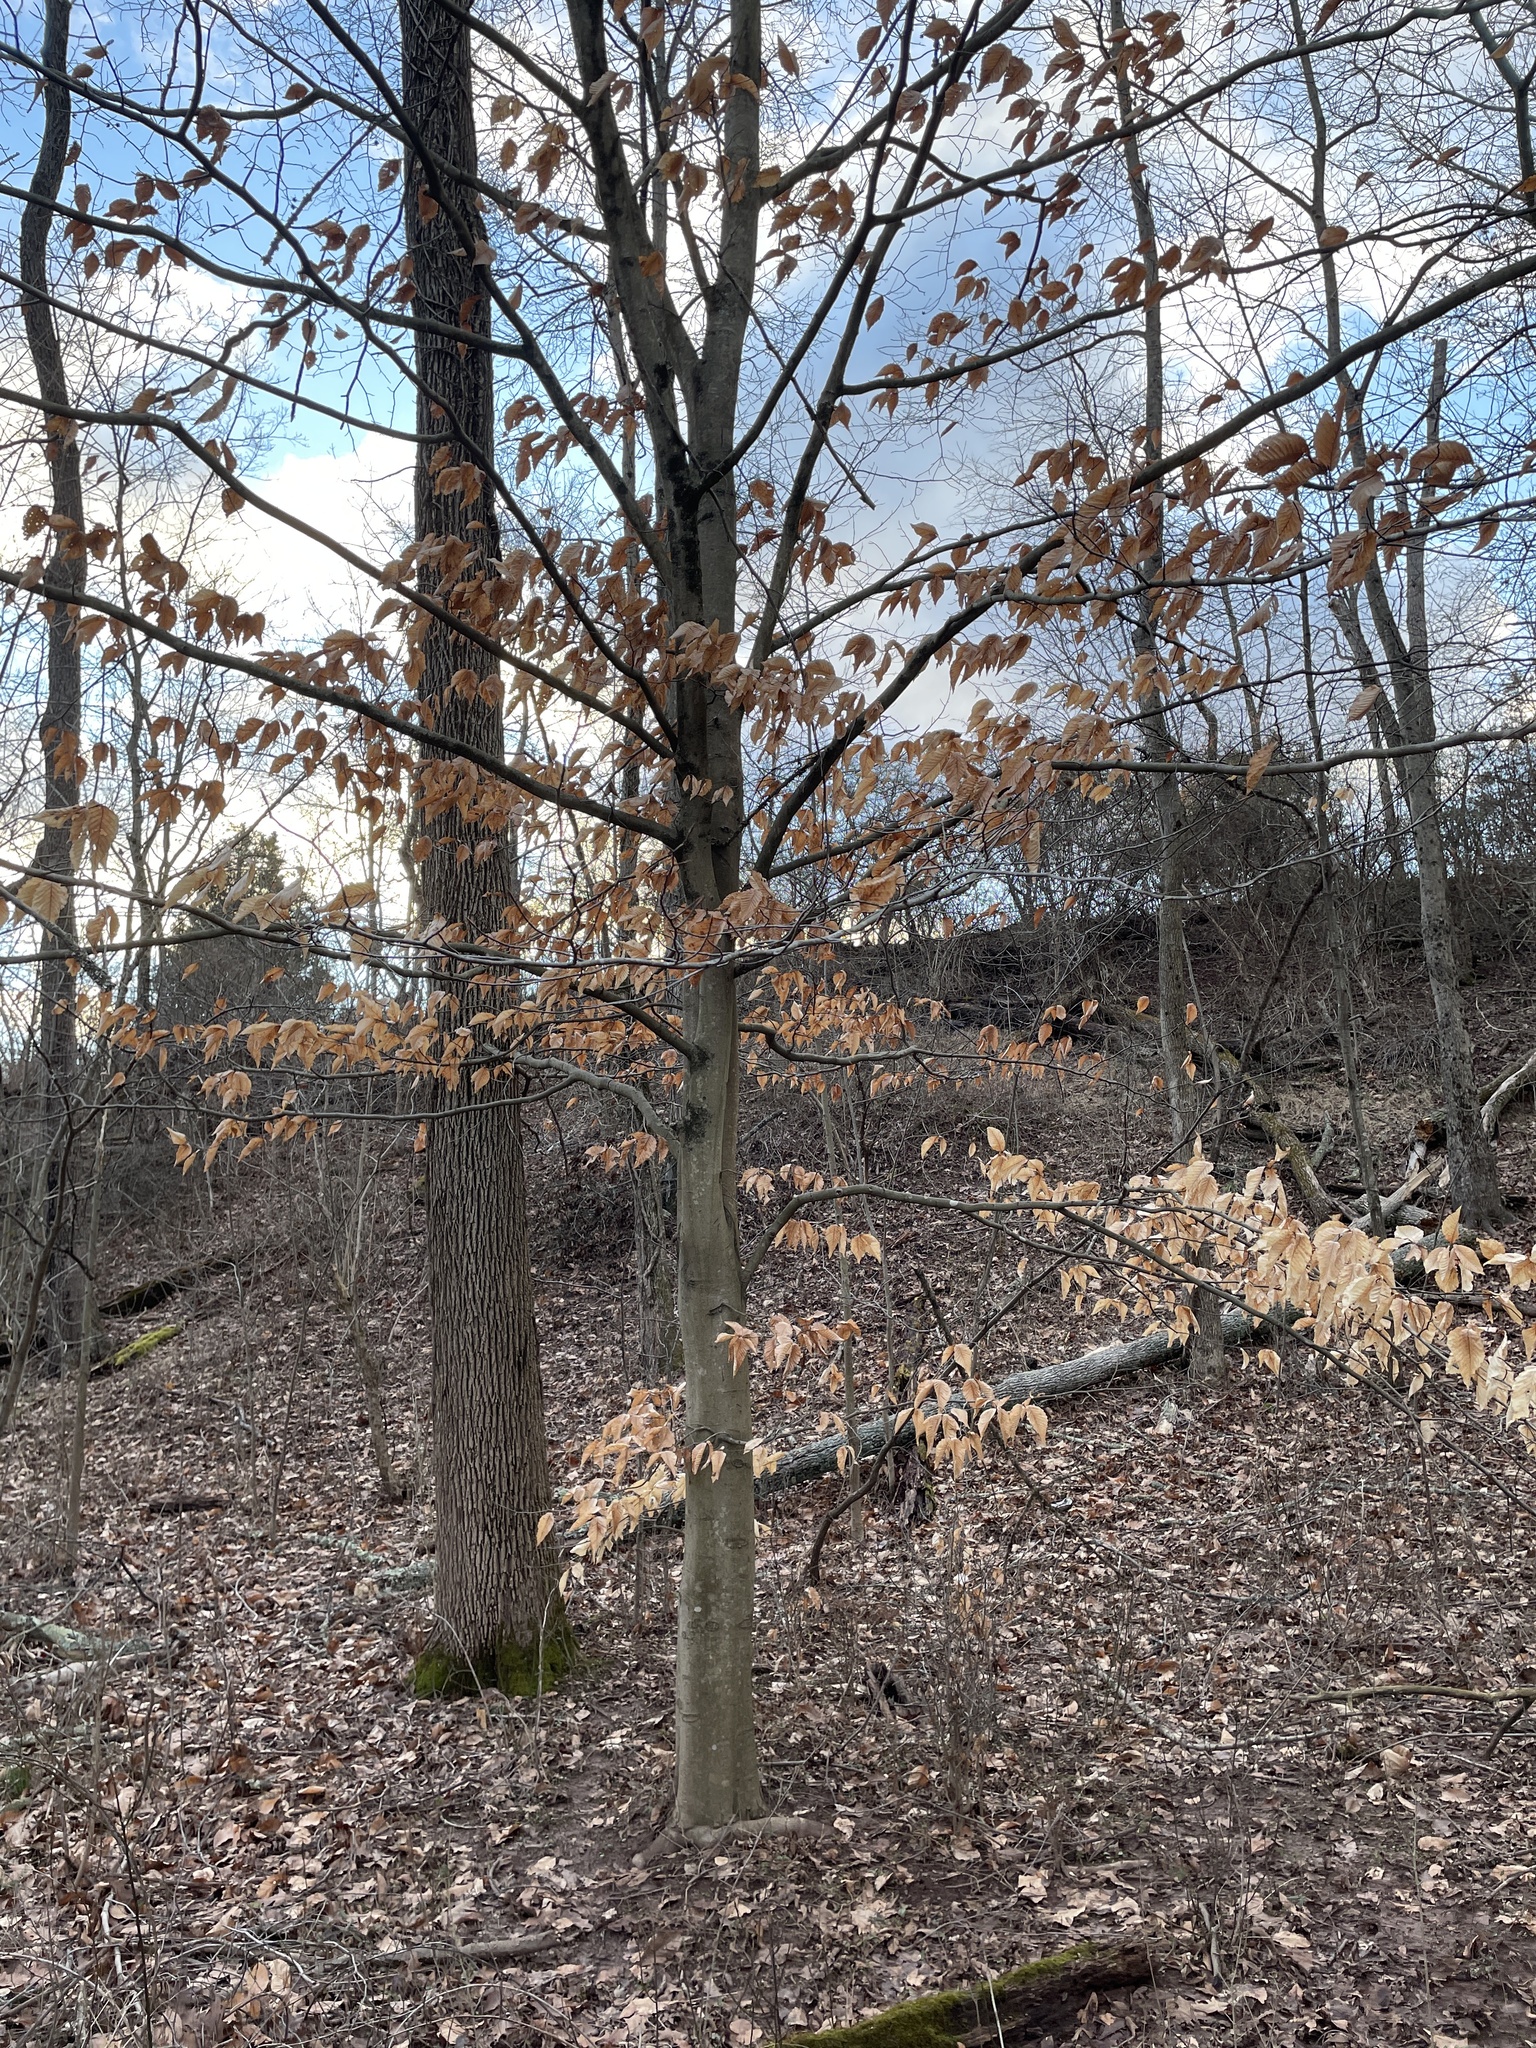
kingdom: Plantae
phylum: Tracheophyta
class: Magnoliopsida
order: Fagales
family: Fagaceae
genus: Fagus
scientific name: Fagus grandifolia
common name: American beech
